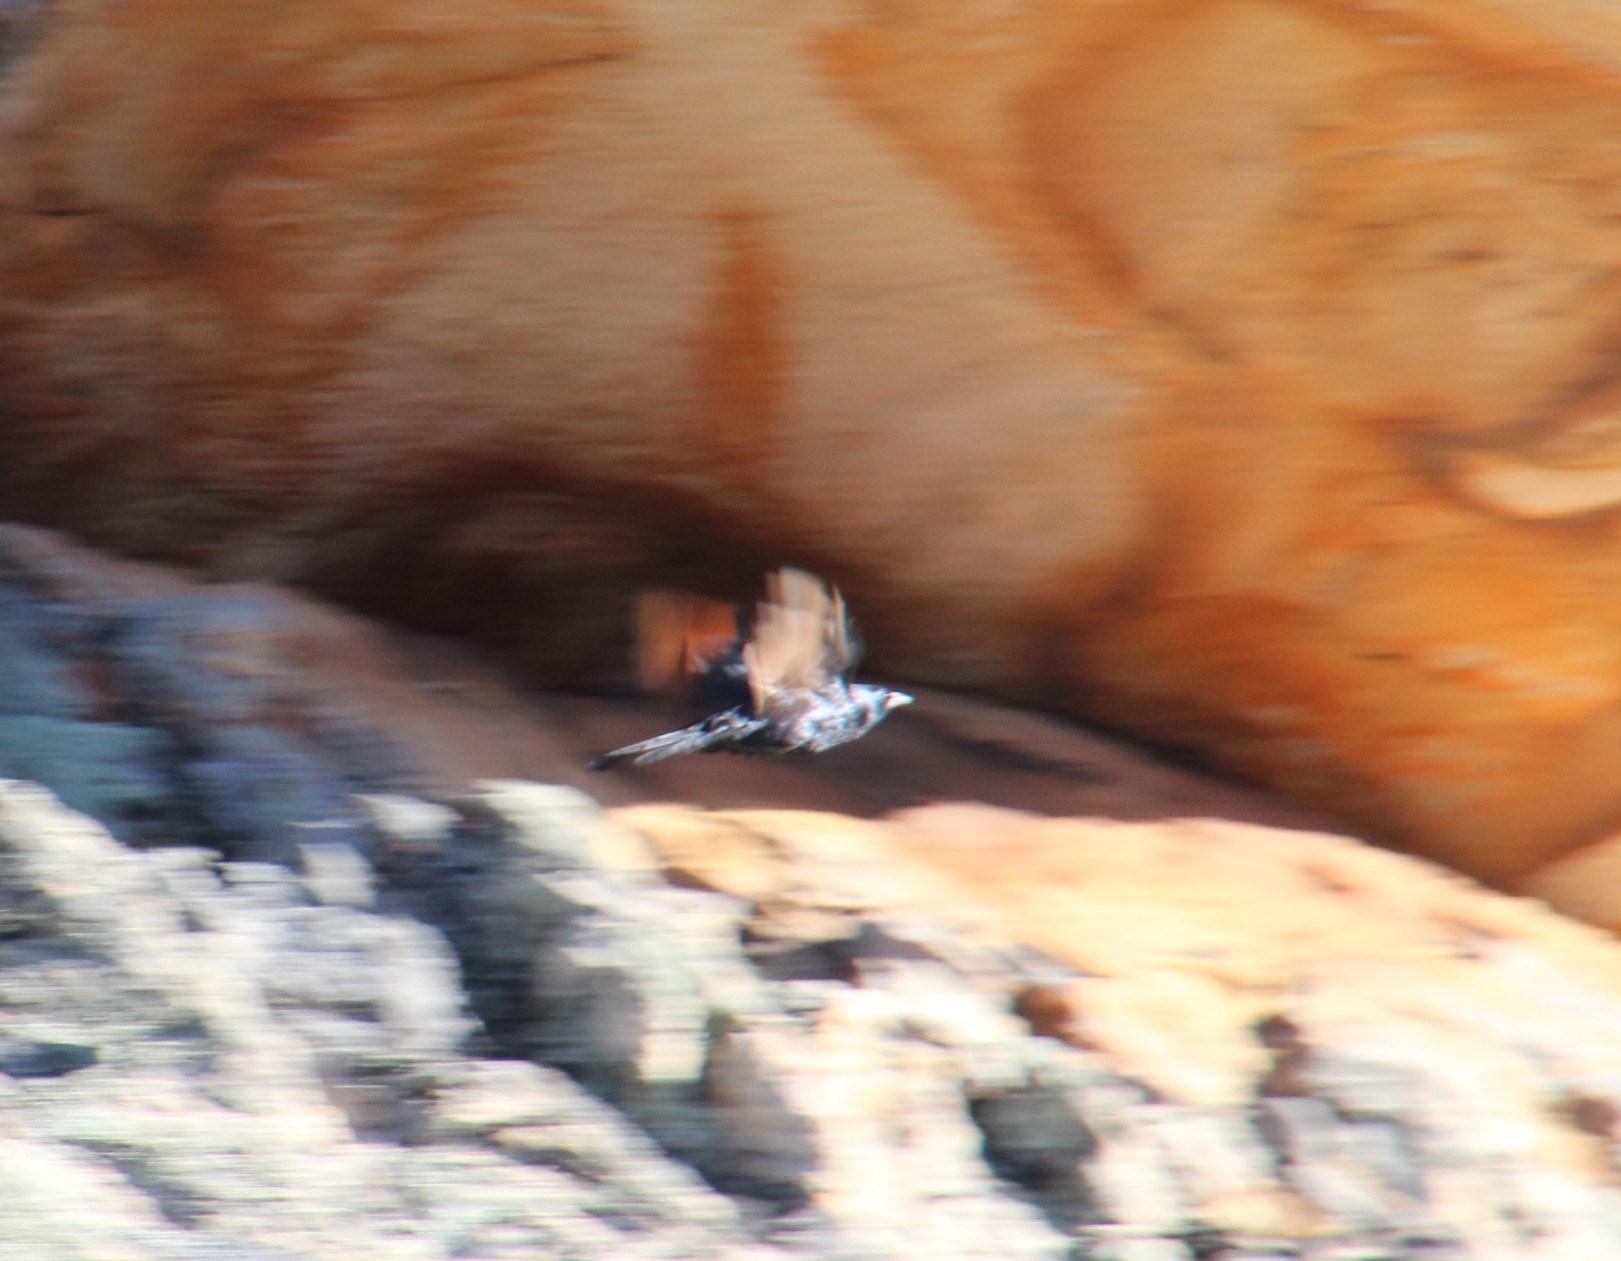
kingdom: Animalia
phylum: Chordata
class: Aves
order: Passeriformes
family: Sturnidae
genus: Onychognathus
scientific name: Onychognathus morio
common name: Red-winged starling
